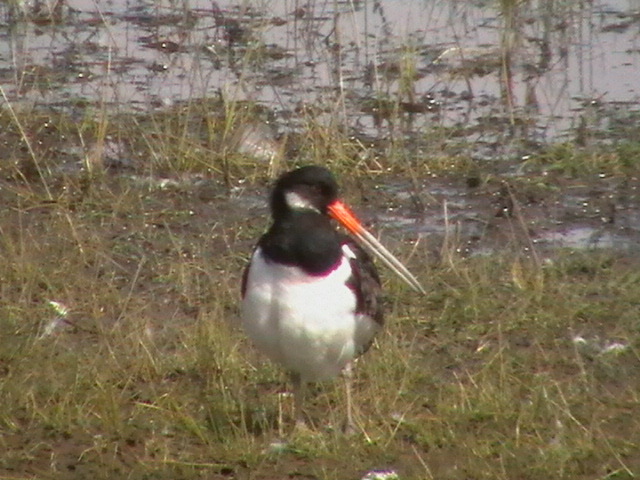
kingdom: Animalia
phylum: Chordata
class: Aves
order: Charadriiformes
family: Haematopodidae
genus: Haematopus
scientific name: Haematopus ostralegus
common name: Eurasian oystercatcher
